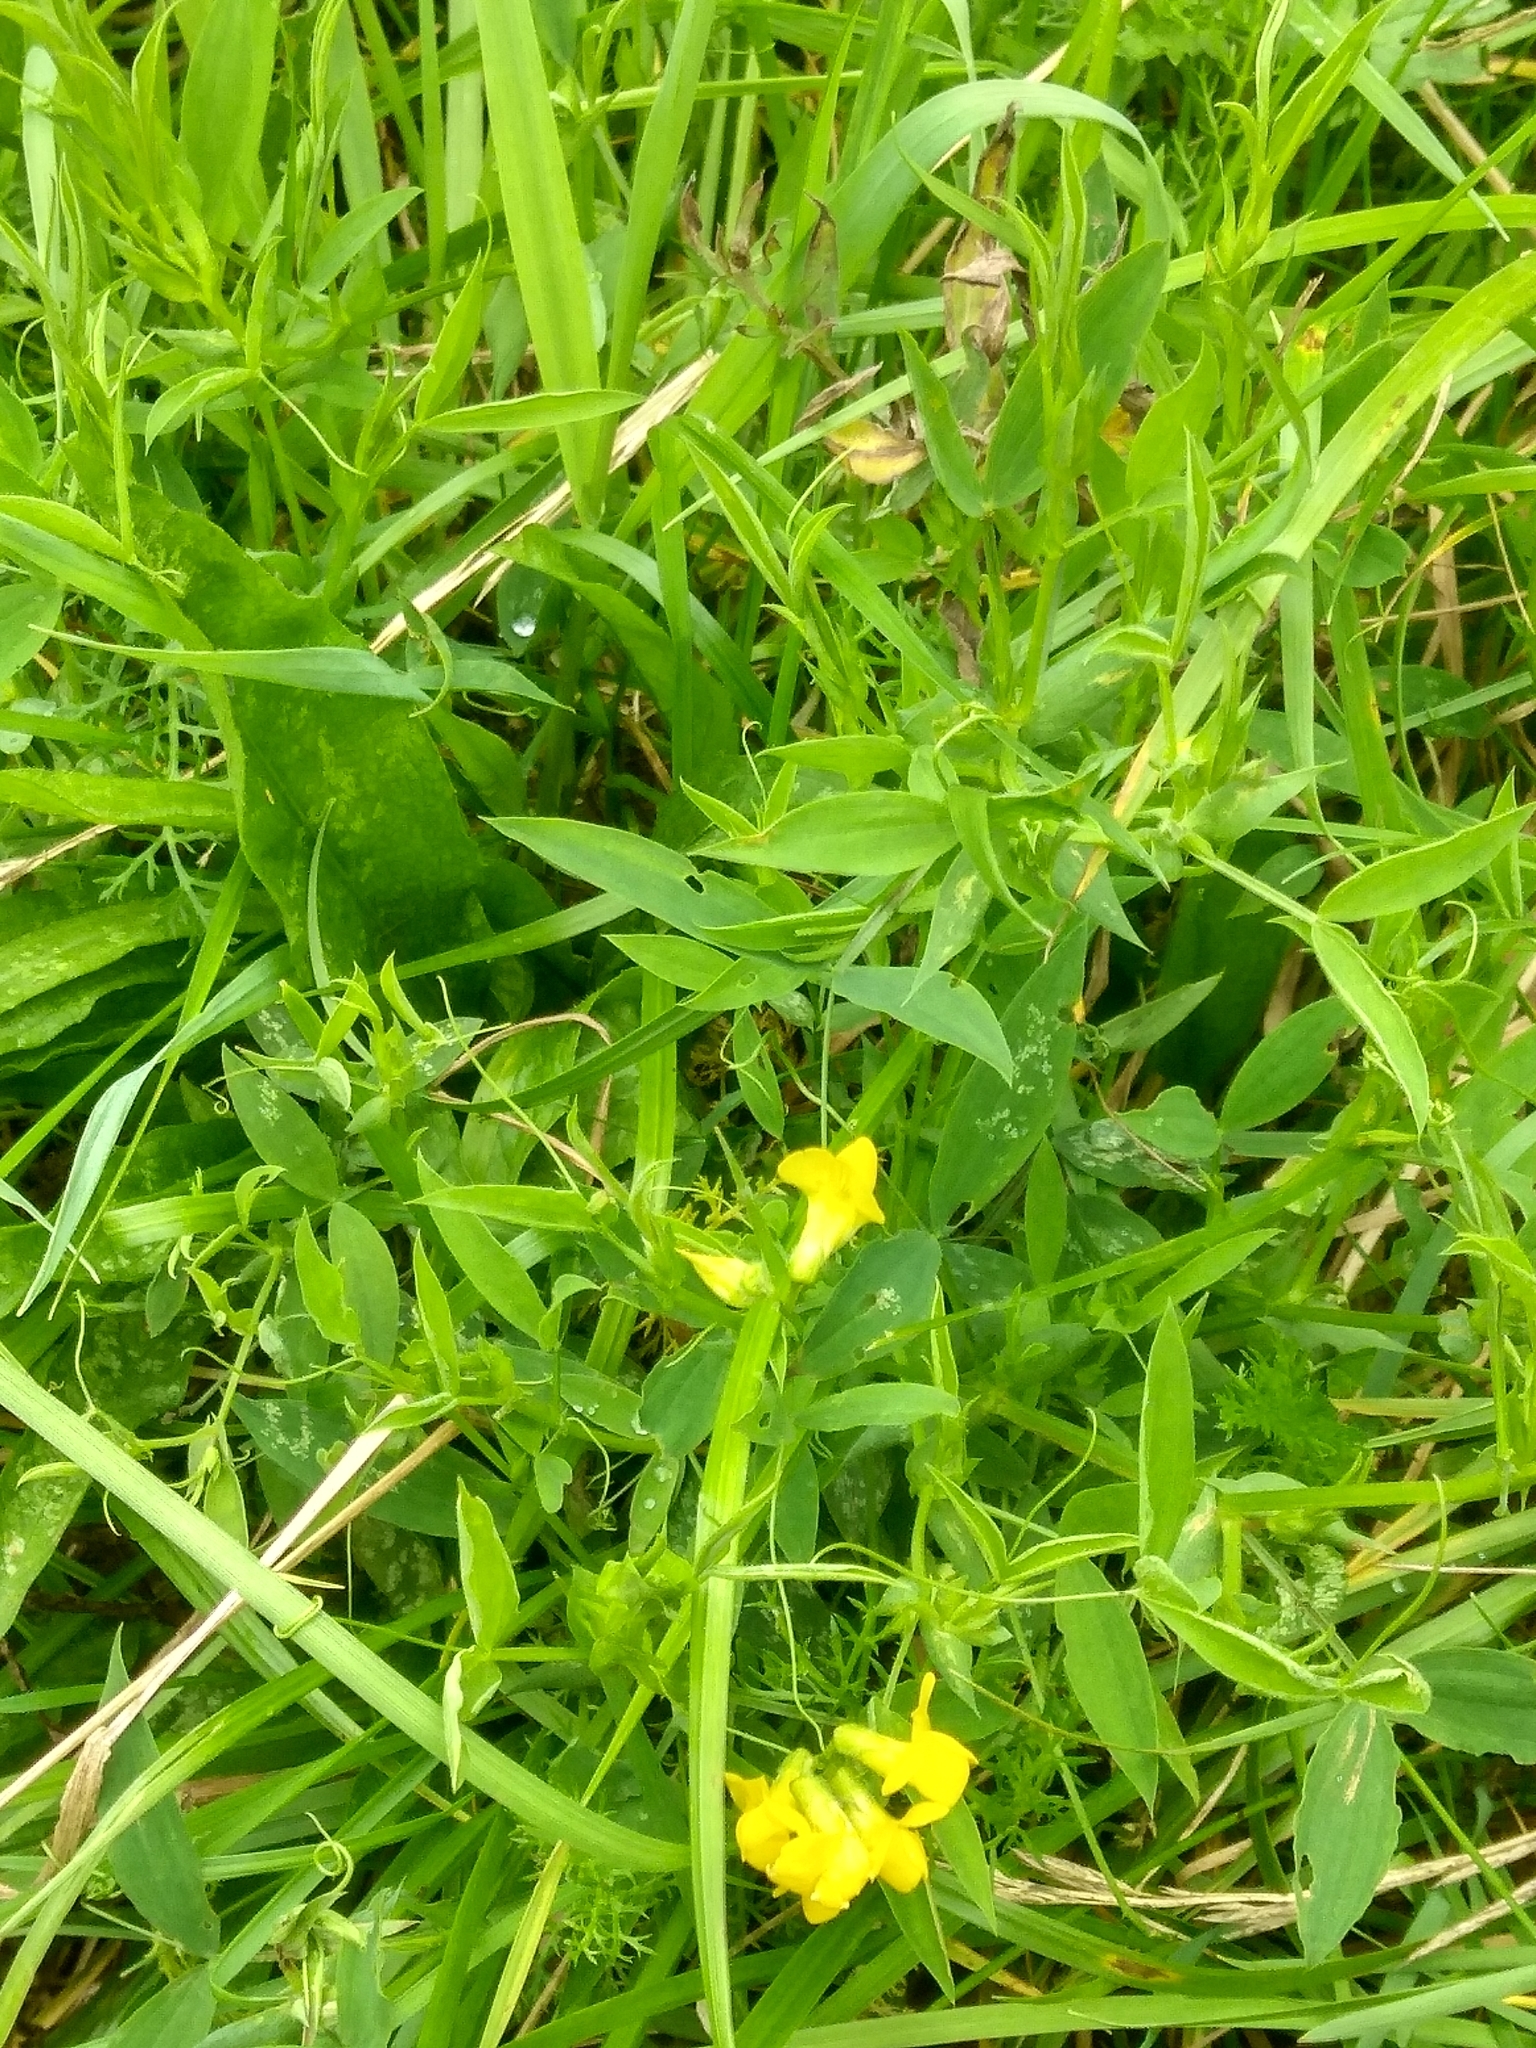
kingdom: Plantae
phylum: Tracheophyta
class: Magnoliopsida
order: Fabales
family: Fabaceae
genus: Lathyrus
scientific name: Lathyrus pratensis
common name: Meadow vetchling
